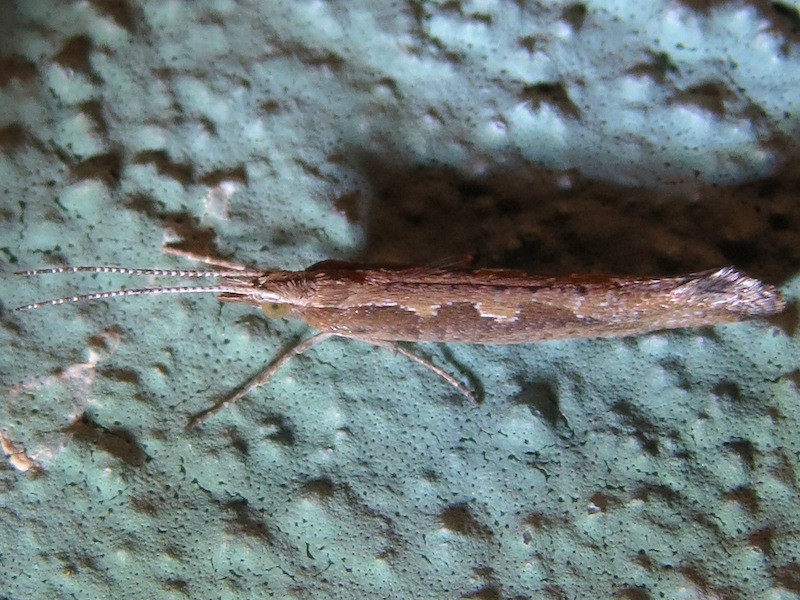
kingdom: Animalia
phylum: Arthropoda
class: Insecta
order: Lepidoptera
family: Plutellidae
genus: Plutella
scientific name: Plutella xylostella
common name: Diamond-back moth
